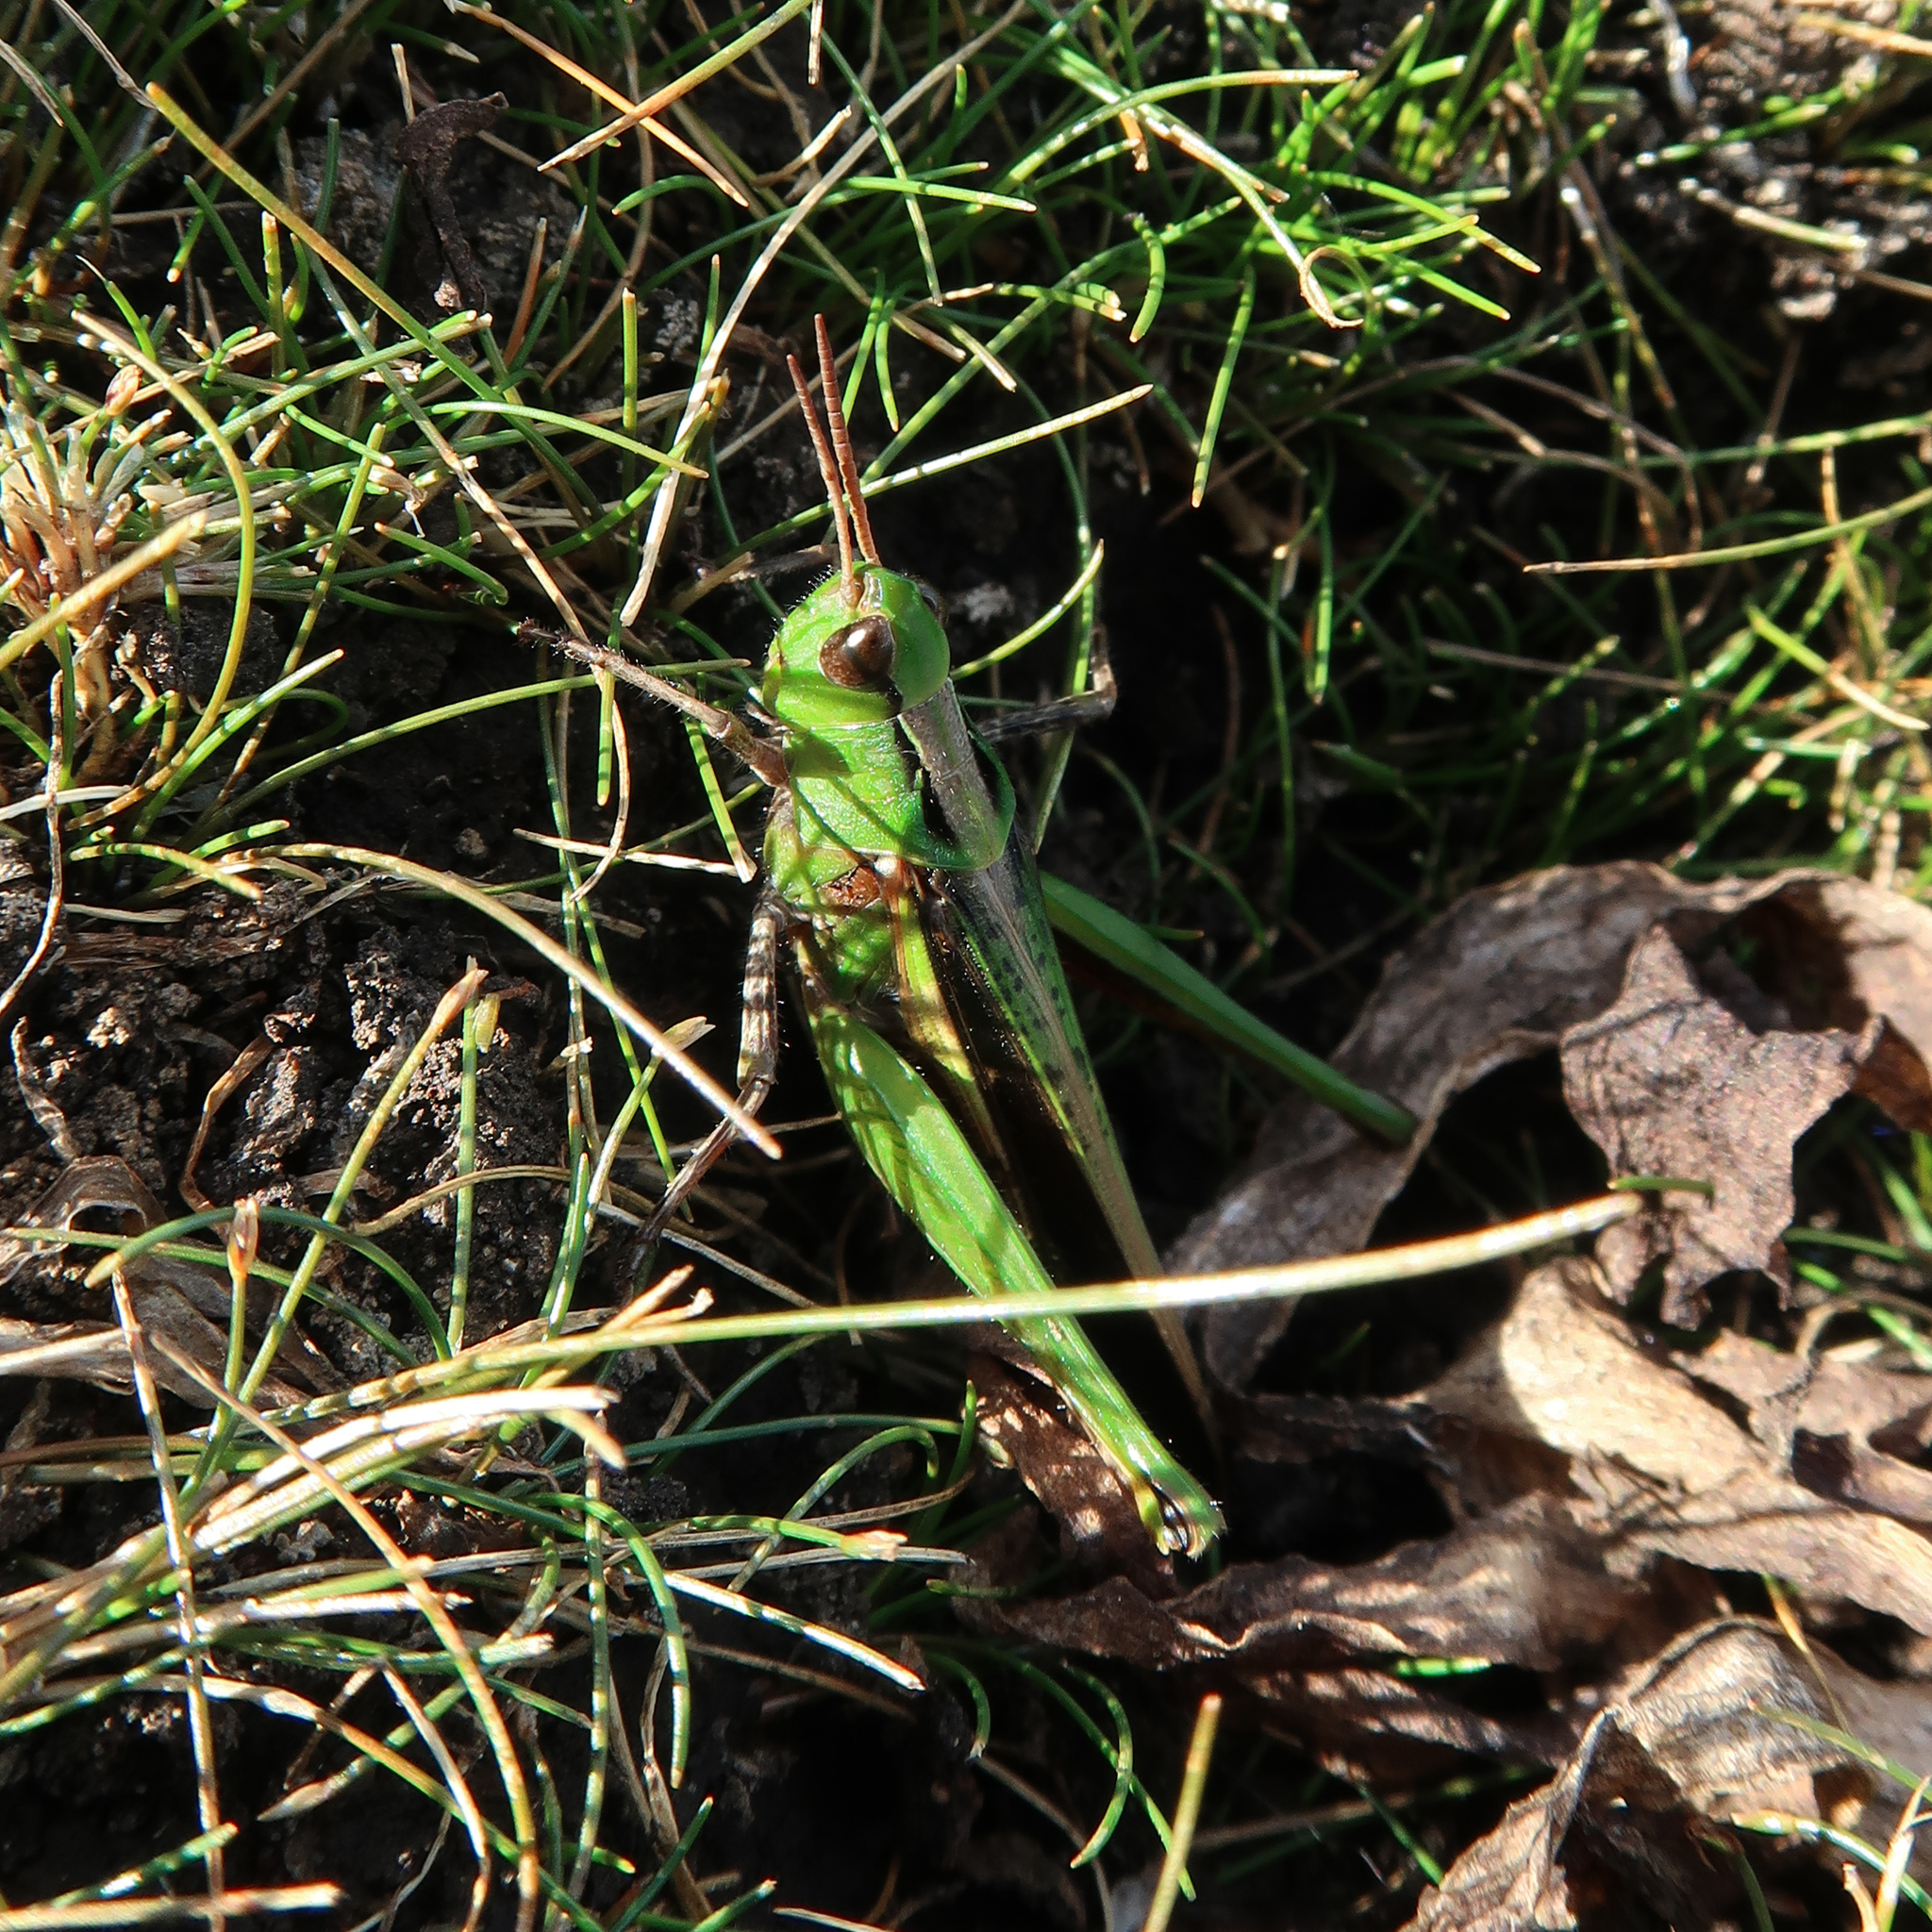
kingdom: Animalia
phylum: Arthropoda
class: Insecta
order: Orthoptera
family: Acrididae
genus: Schizobothrus
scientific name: Schizobothrus flavovittatus
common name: Disappearing grasshopper
